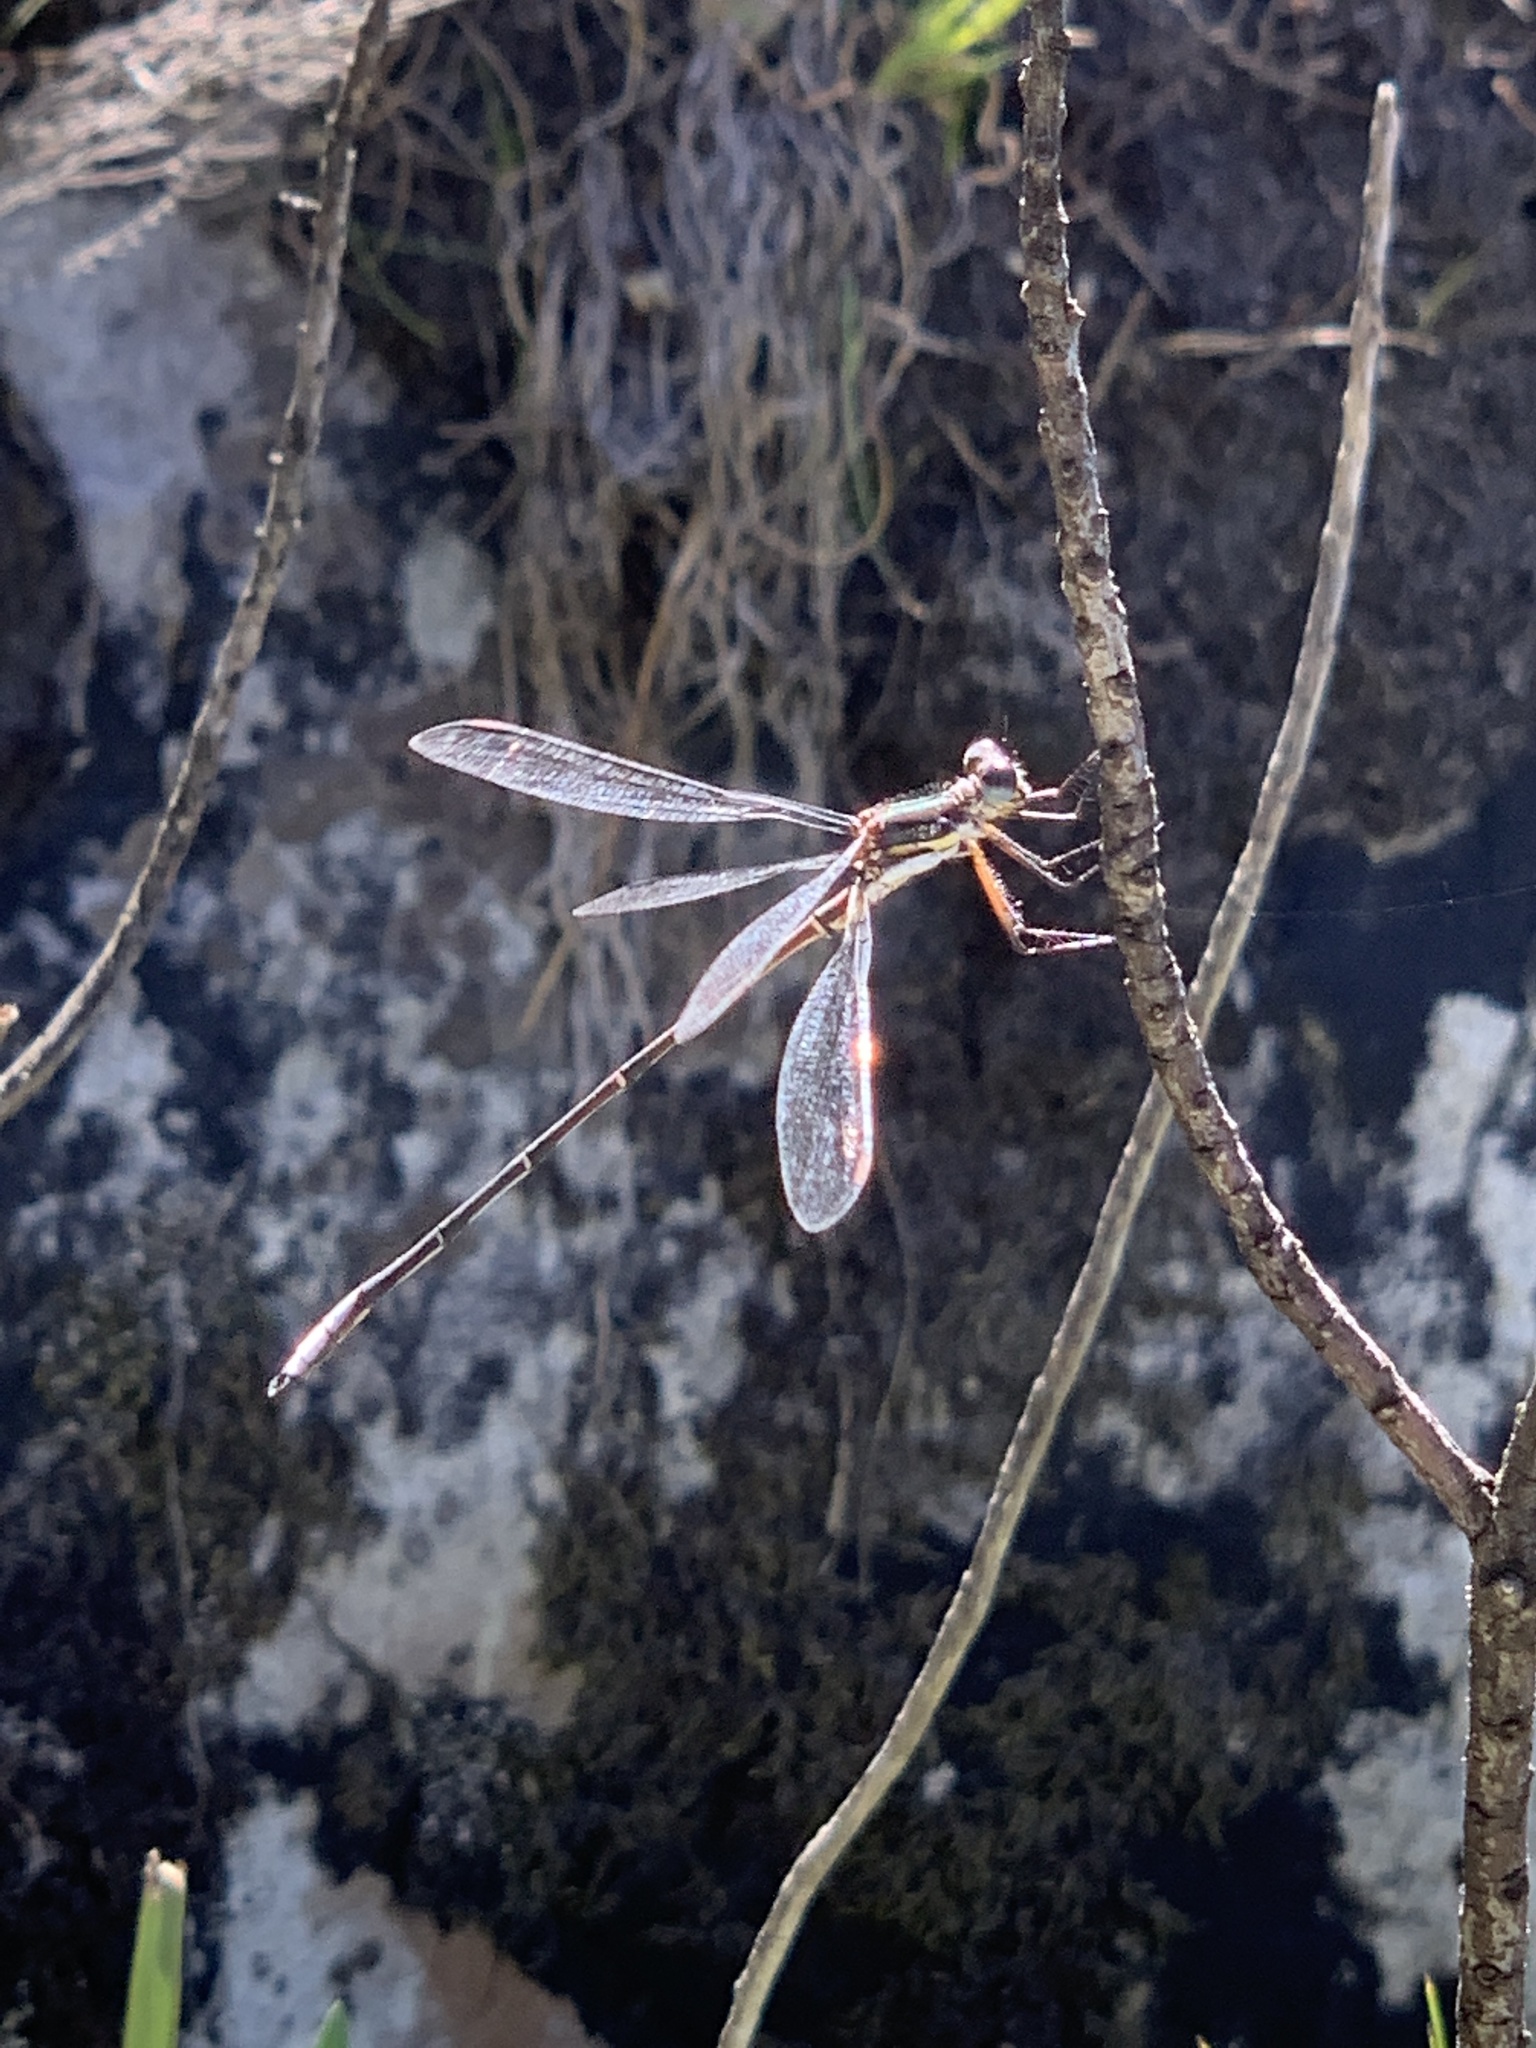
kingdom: Animalia
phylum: Arthropoda
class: Insecta
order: Odonata
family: Synlestidae
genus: Chlorolestes
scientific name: Chlorolestes conspicuus
